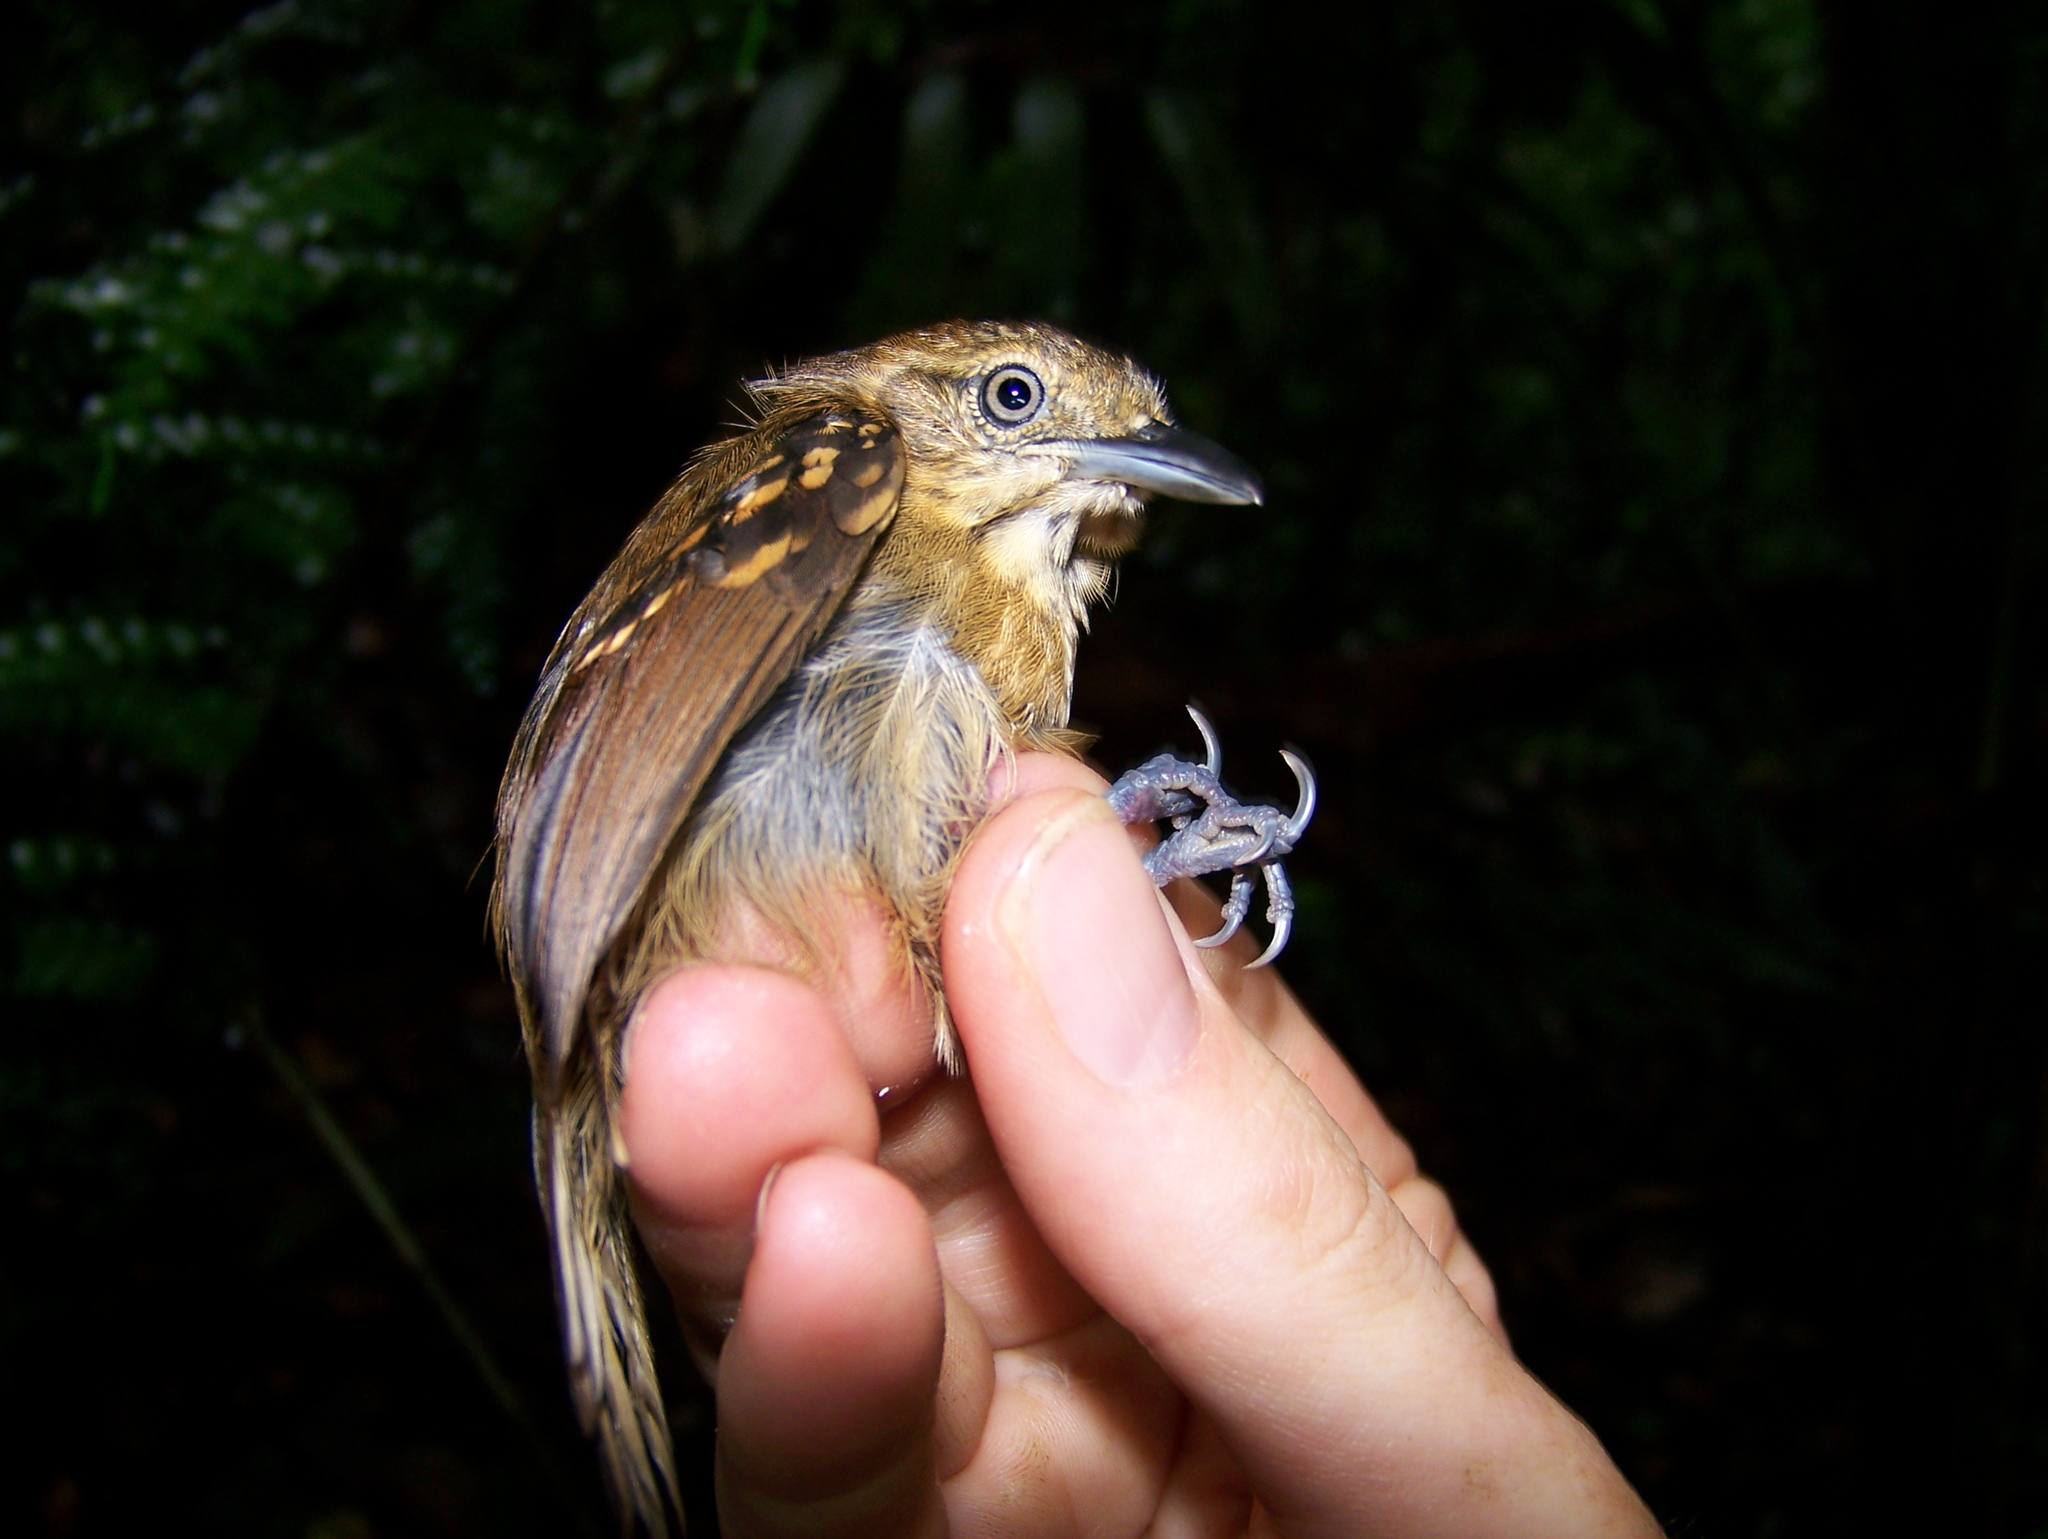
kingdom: Animalia
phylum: Chordata
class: Aves
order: Passeriformes
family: Thamnophilidae
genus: Epinecrophylla
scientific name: Epinecrophylla fjeldsaai
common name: Brown-backed antwren
